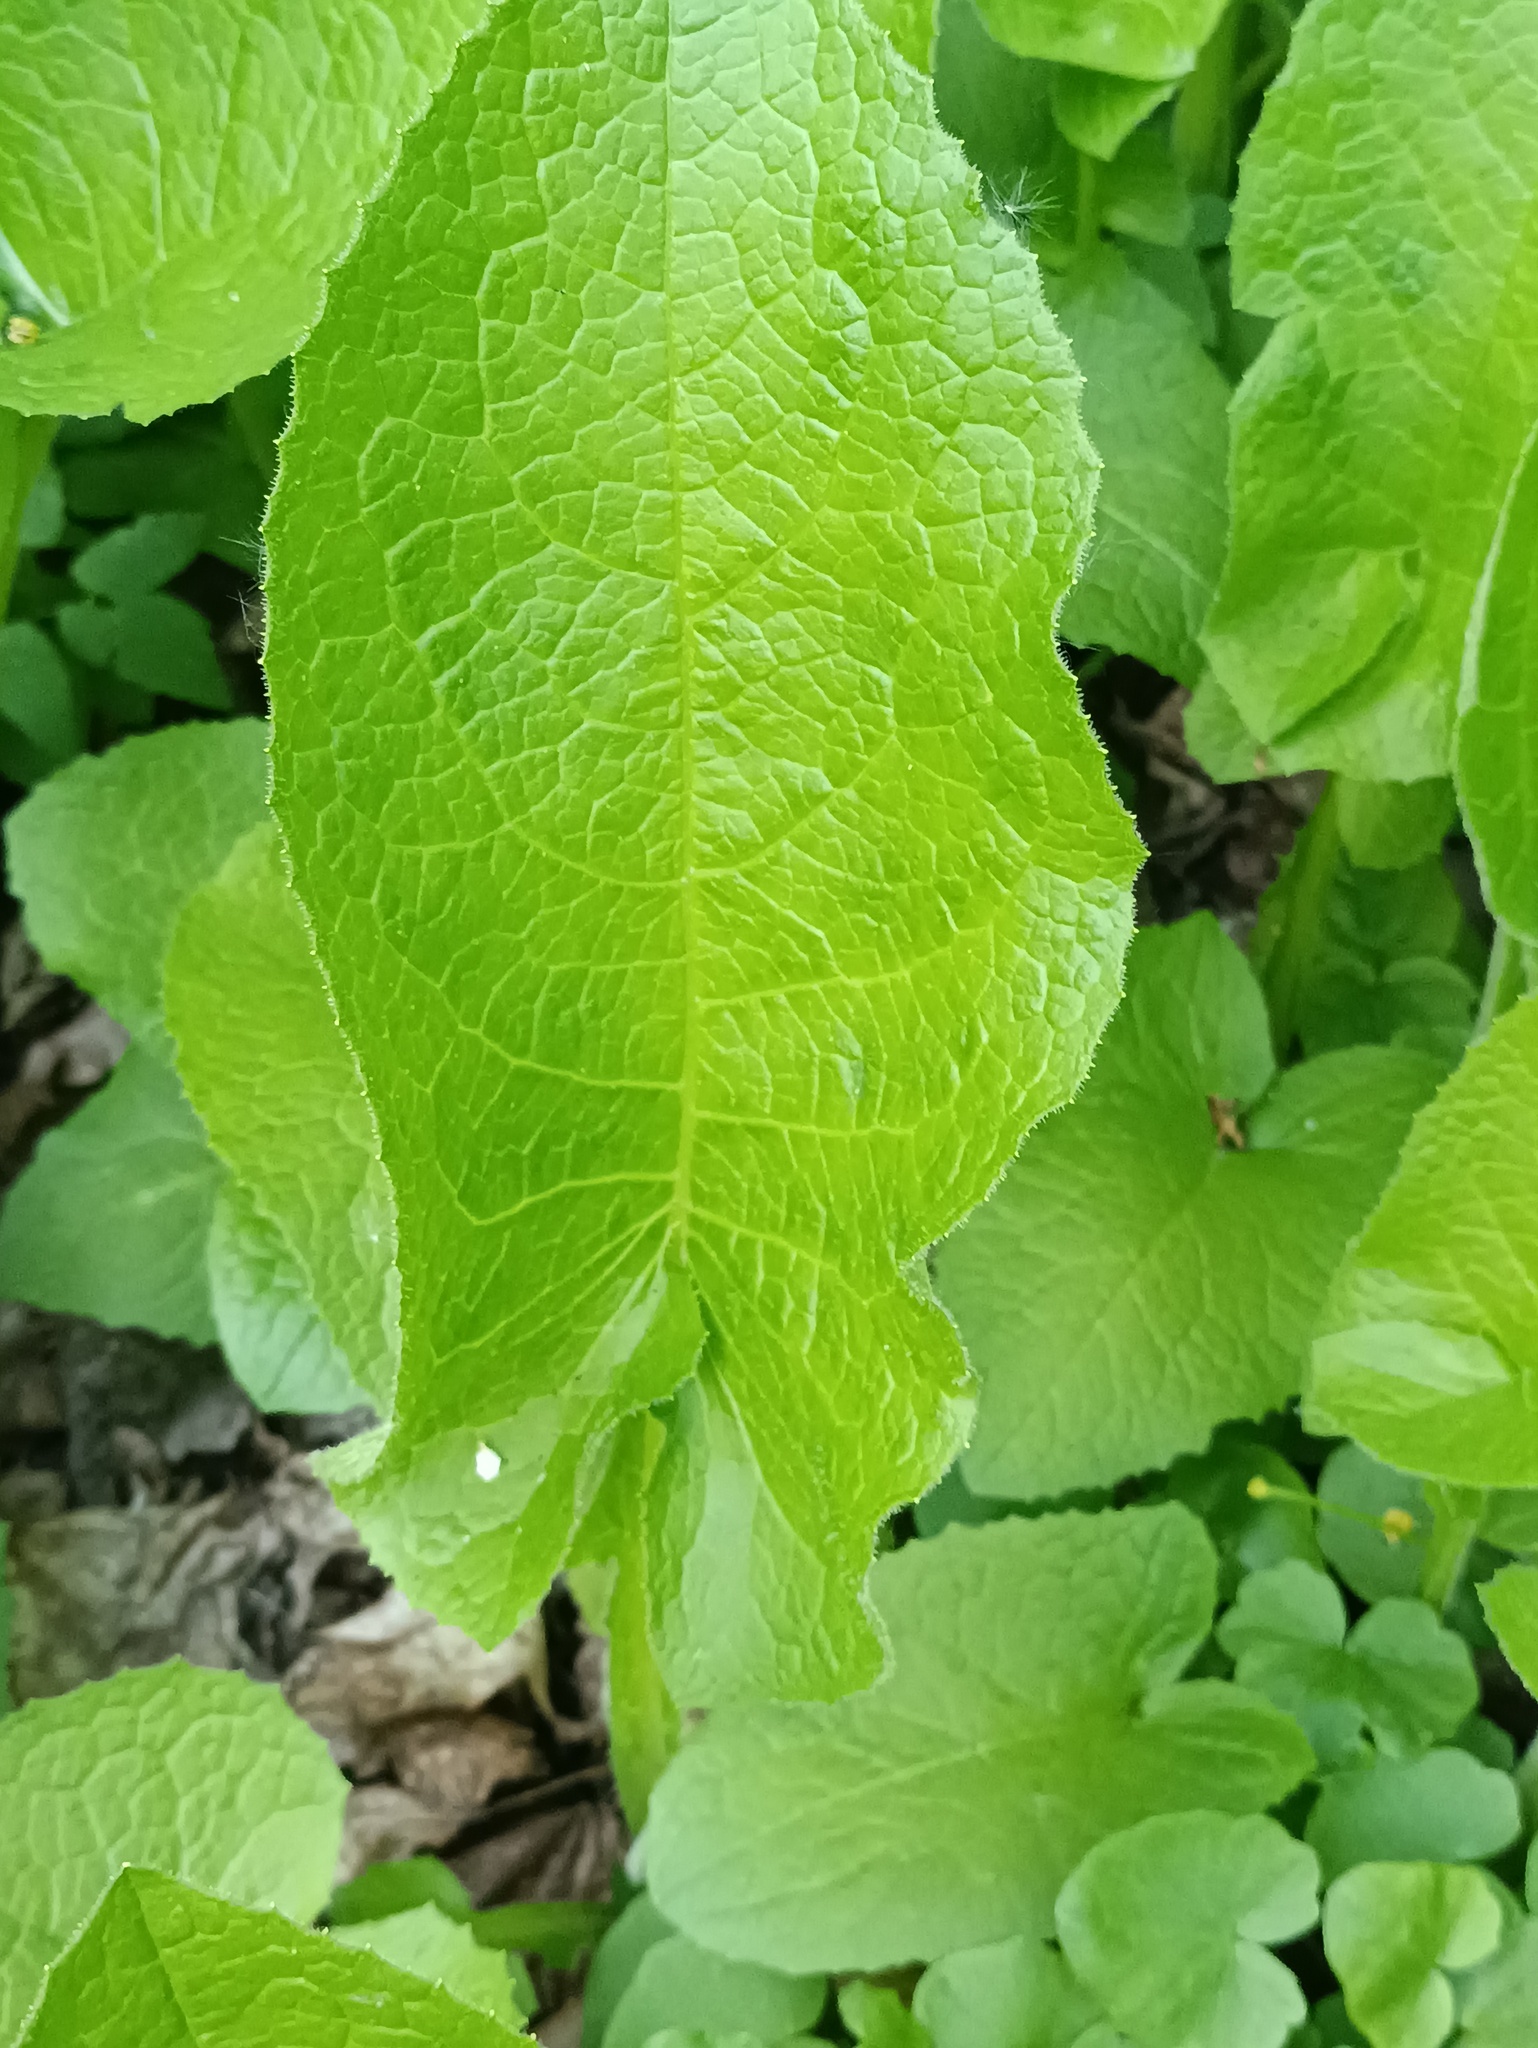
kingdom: Plantae
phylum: Tracheophyta
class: Magnoliopsida
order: Asterales
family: Asteraceae
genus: Lactuca
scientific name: Lactuca macrophylla
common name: Common blue-sow-thistle
